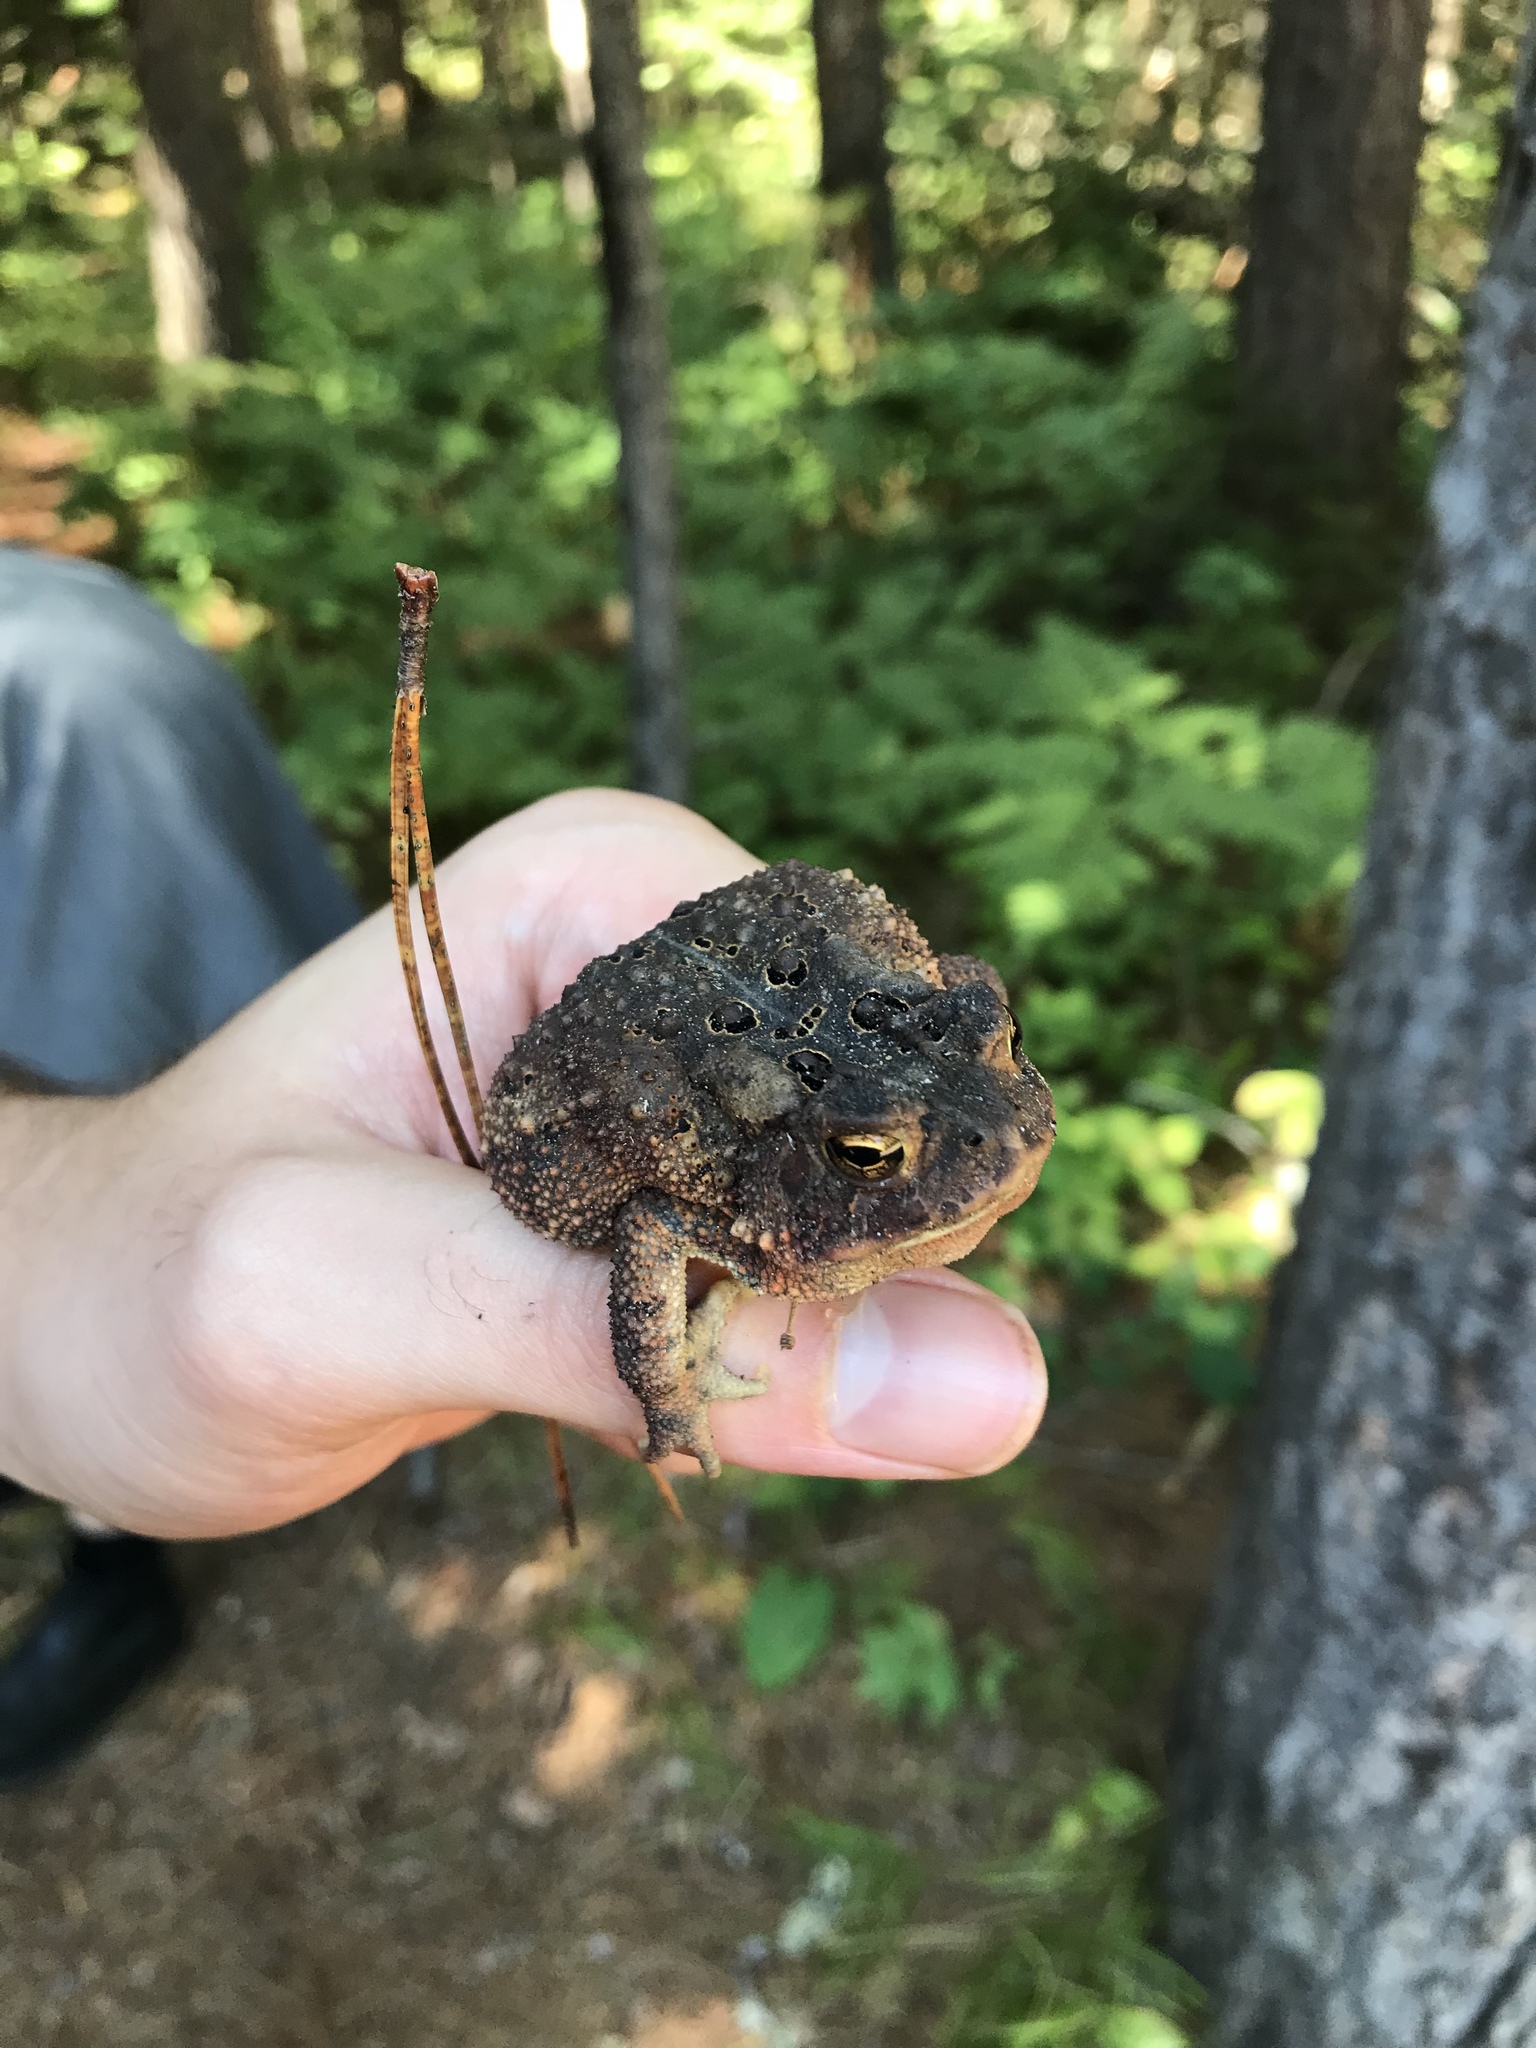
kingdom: Animalia
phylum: Chordata
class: Amphibia
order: Anura
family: Bufonidae
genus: Anaxyrus
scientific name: Anaxyrus americanus
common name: American toad
